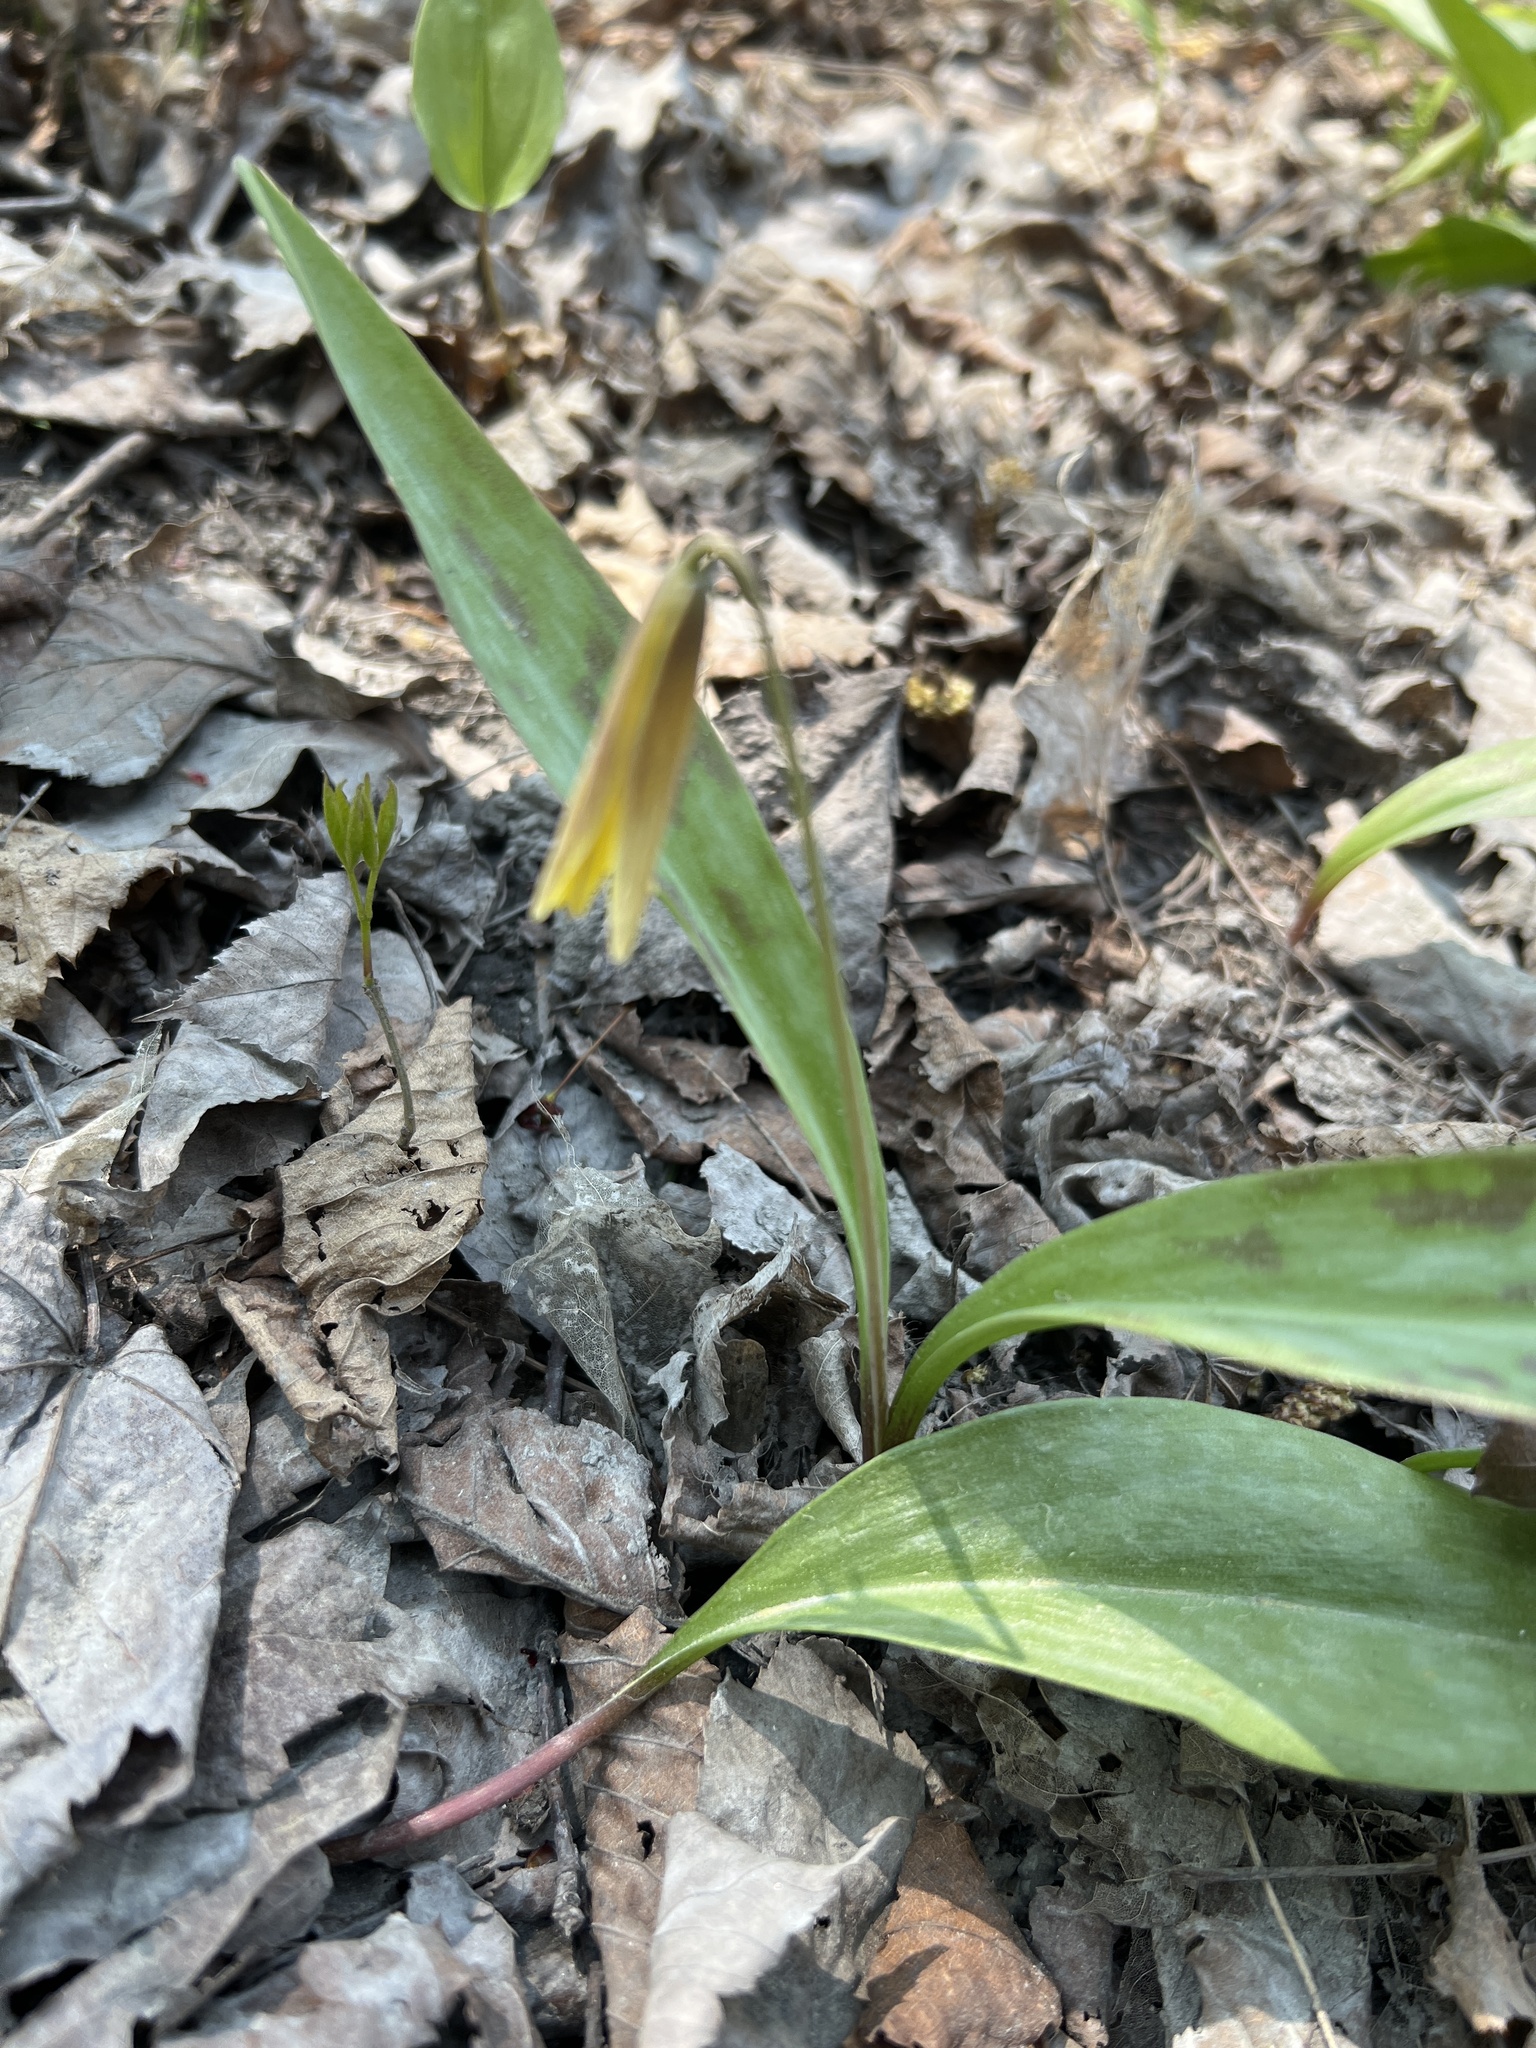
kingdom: Plantae
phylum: Tracheophyta
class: Liliopsida
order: Liliales
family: Liliaceae
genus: Erythronium
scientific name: Erythronium americanum
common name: Yellow adder's-tongue
